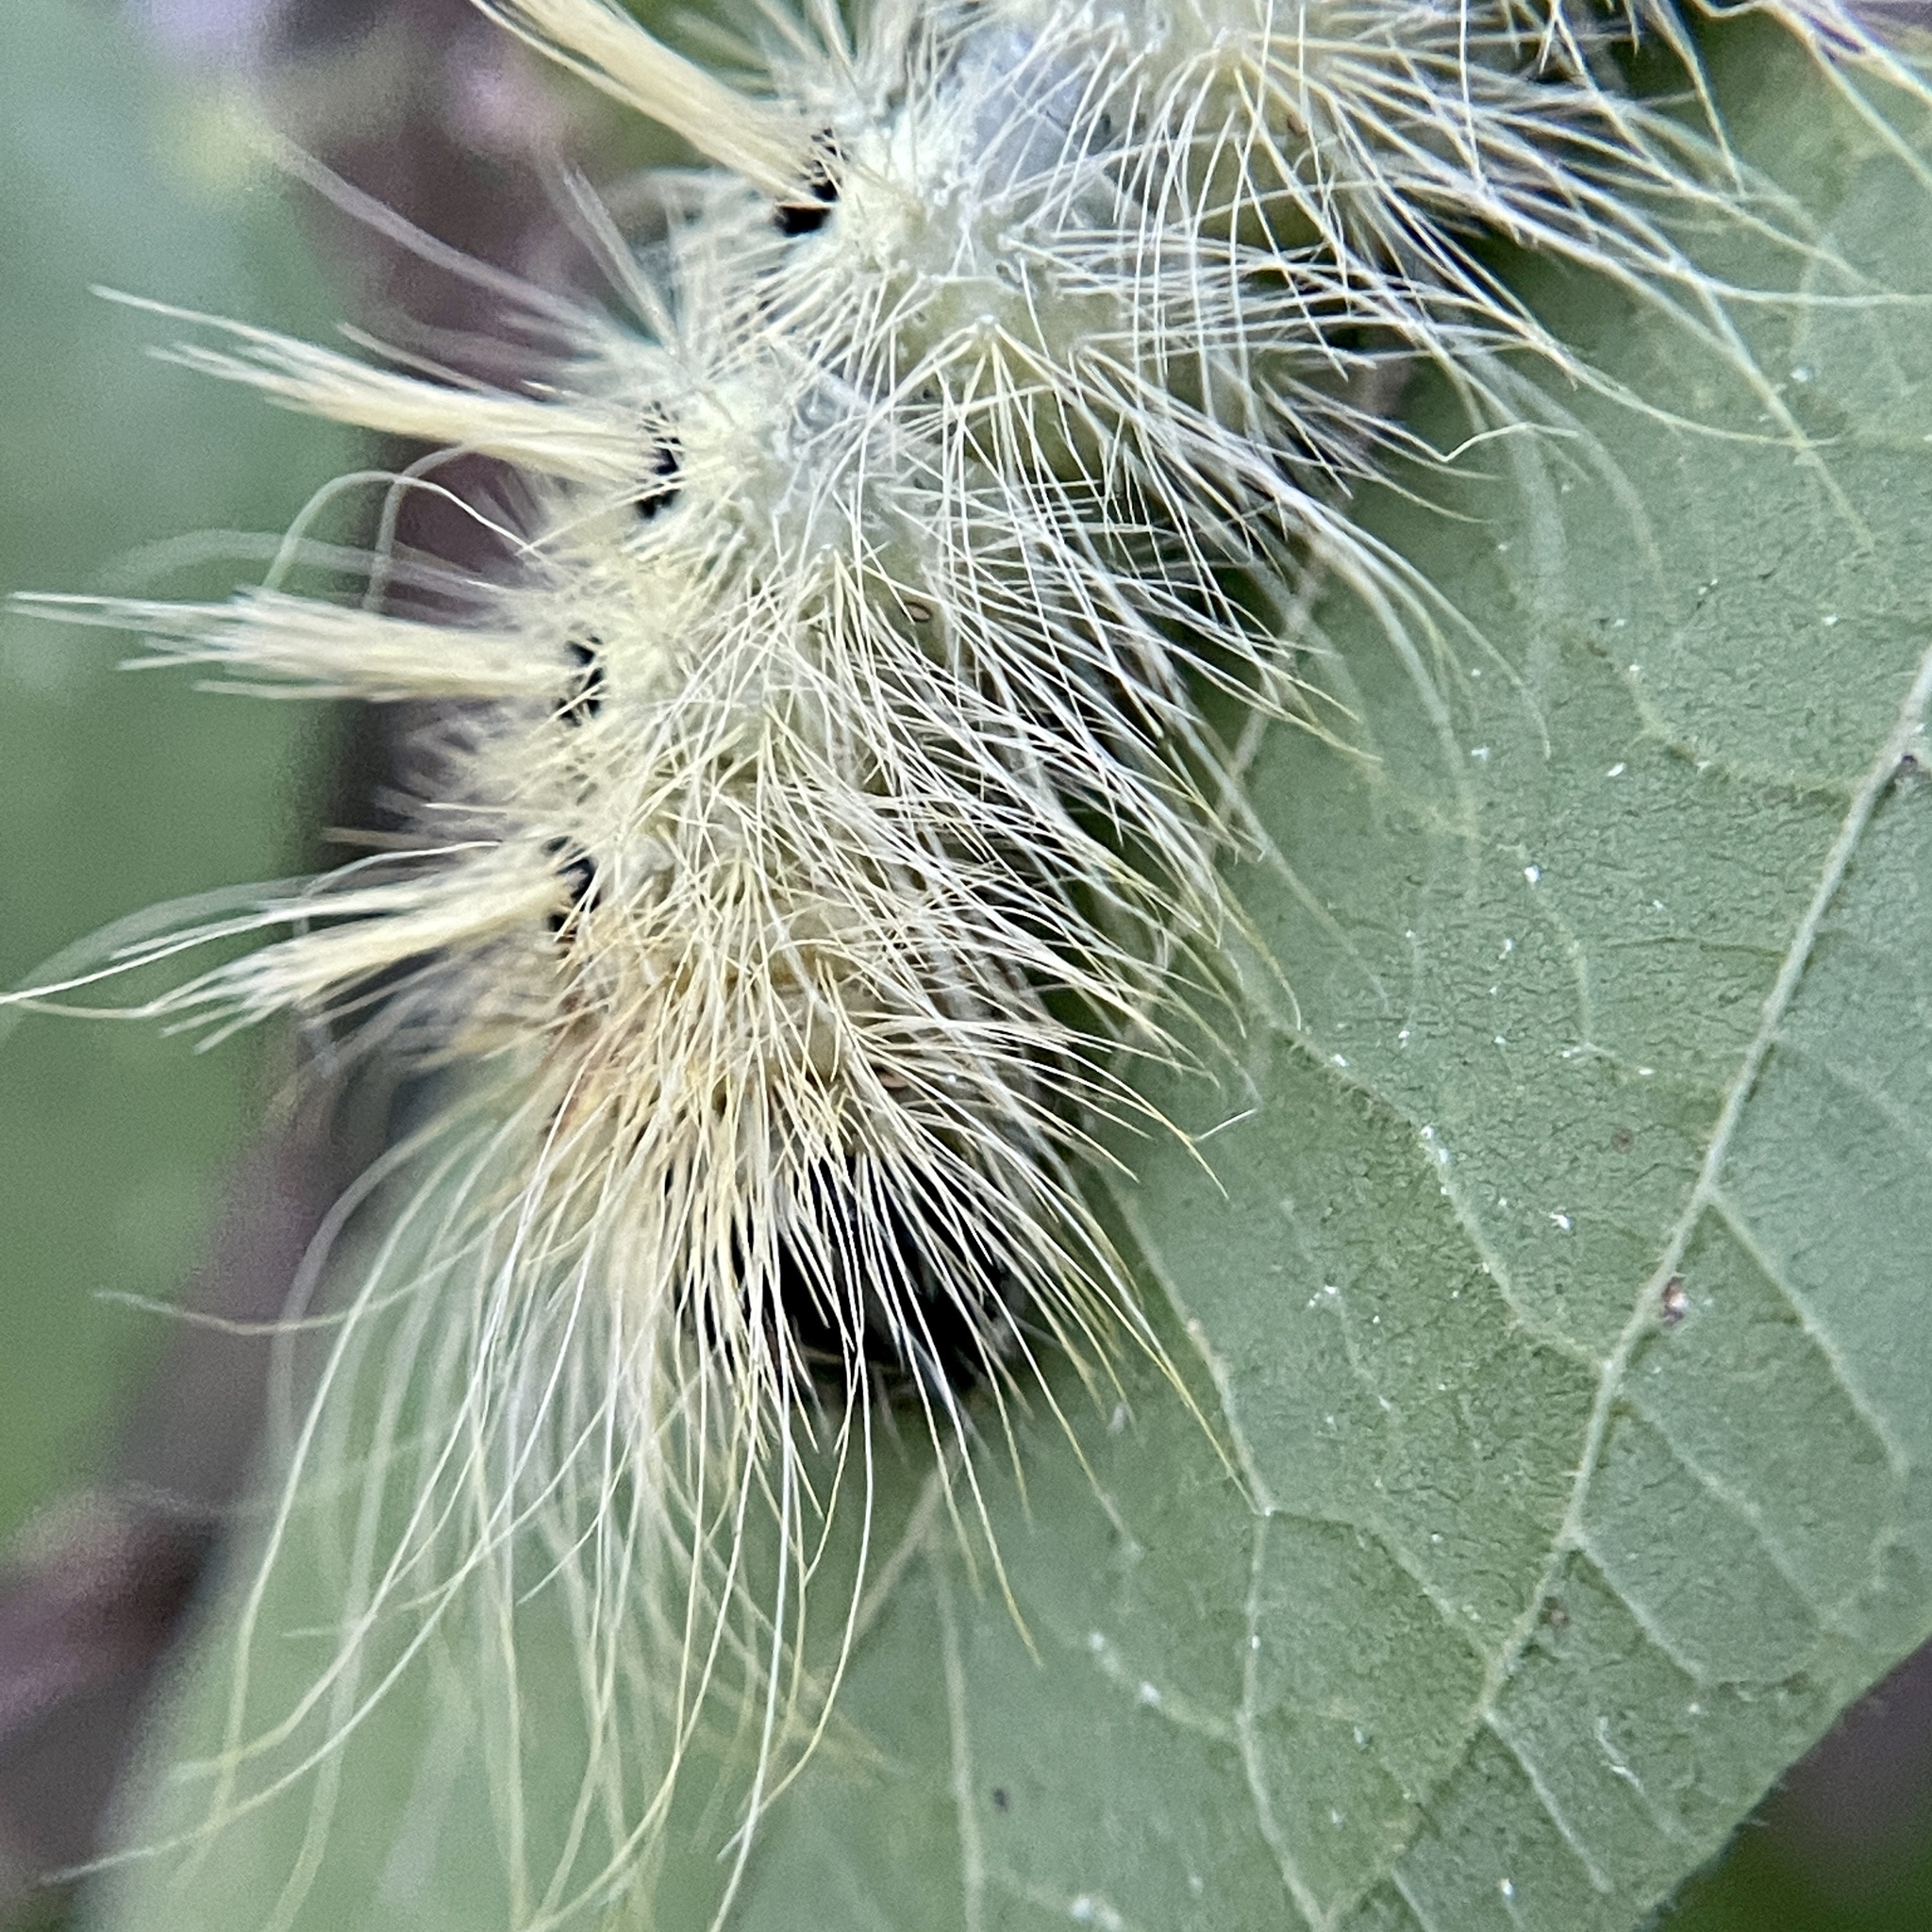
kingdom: Animalia
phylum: Arthropoda
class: Insecta
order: Lepidoptera
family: Noctuidae
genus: Acronicta
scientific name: Acronicta rubricoma
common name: Hackberry dagger
